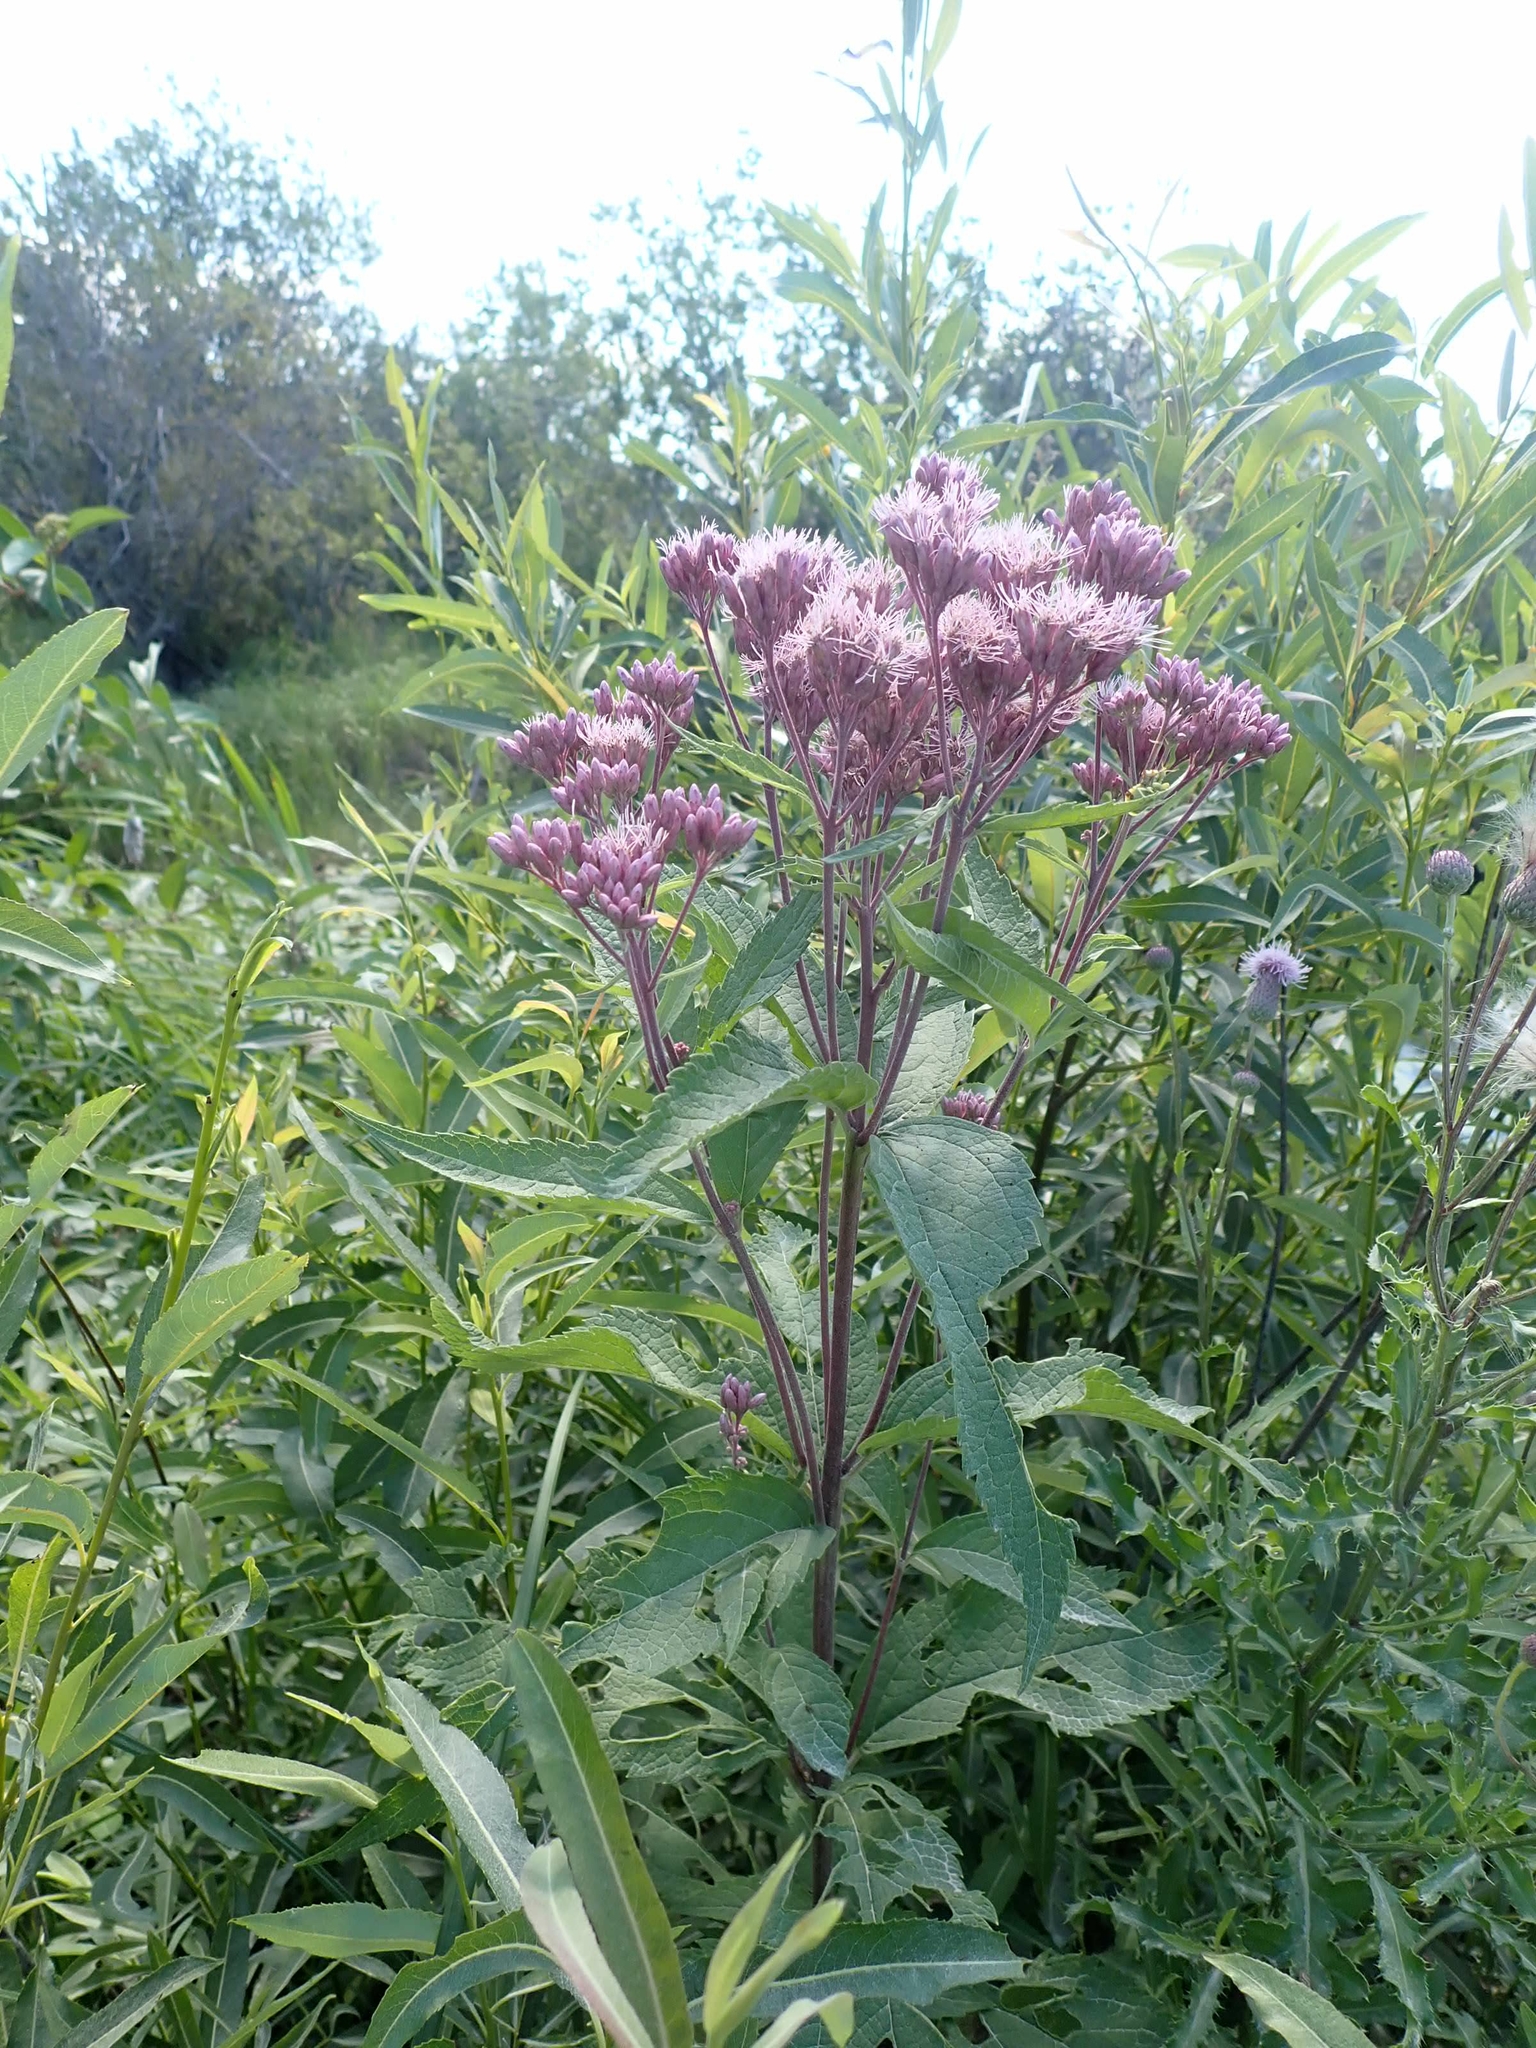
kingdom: Plantae
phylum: Tracheophyta
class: Magnoliopsida
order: Asterales
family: Asteraceae
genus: Eutrochium
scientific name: Eutrochium maculatum
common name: Spotted joe pye weed
